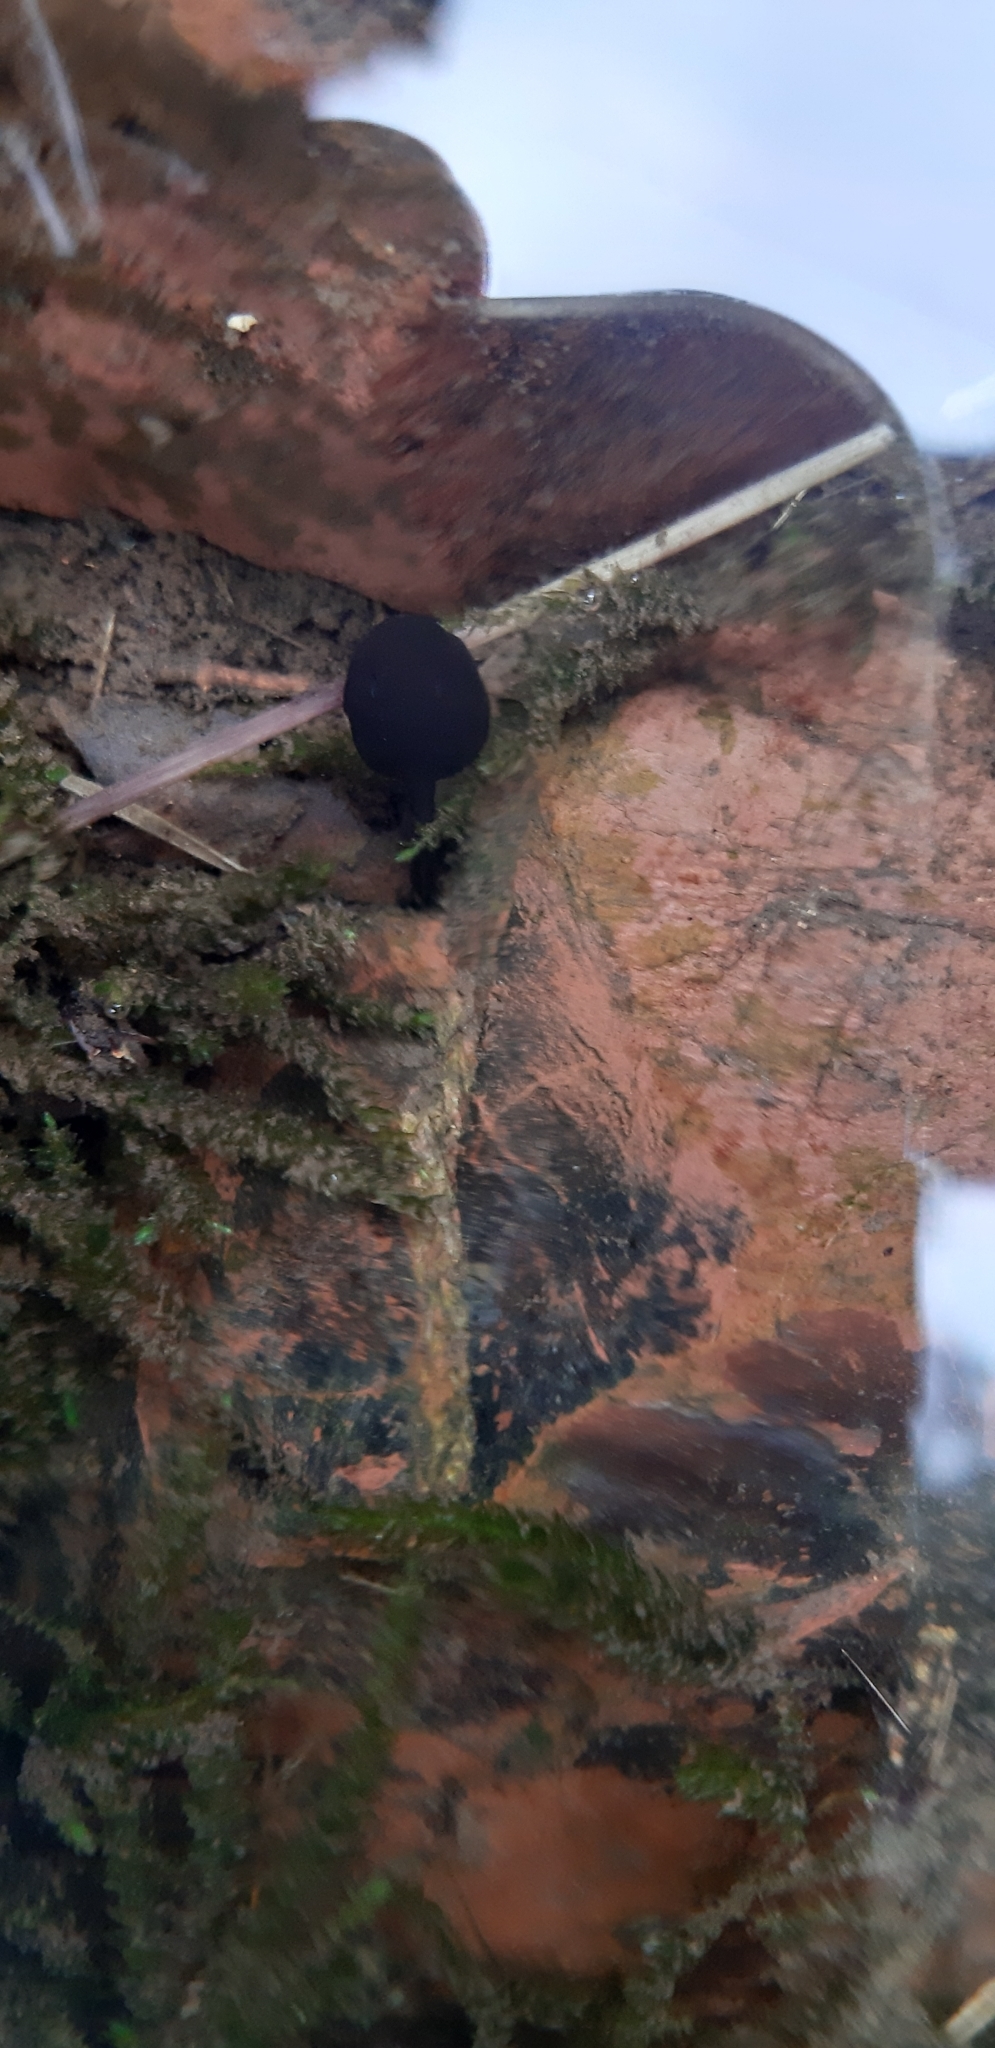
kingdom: Animalia
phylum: Chordata
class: Amphibia
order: Anura
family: Bufonidae
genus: Bufo
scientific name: Bufo bufo
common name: Common toad
